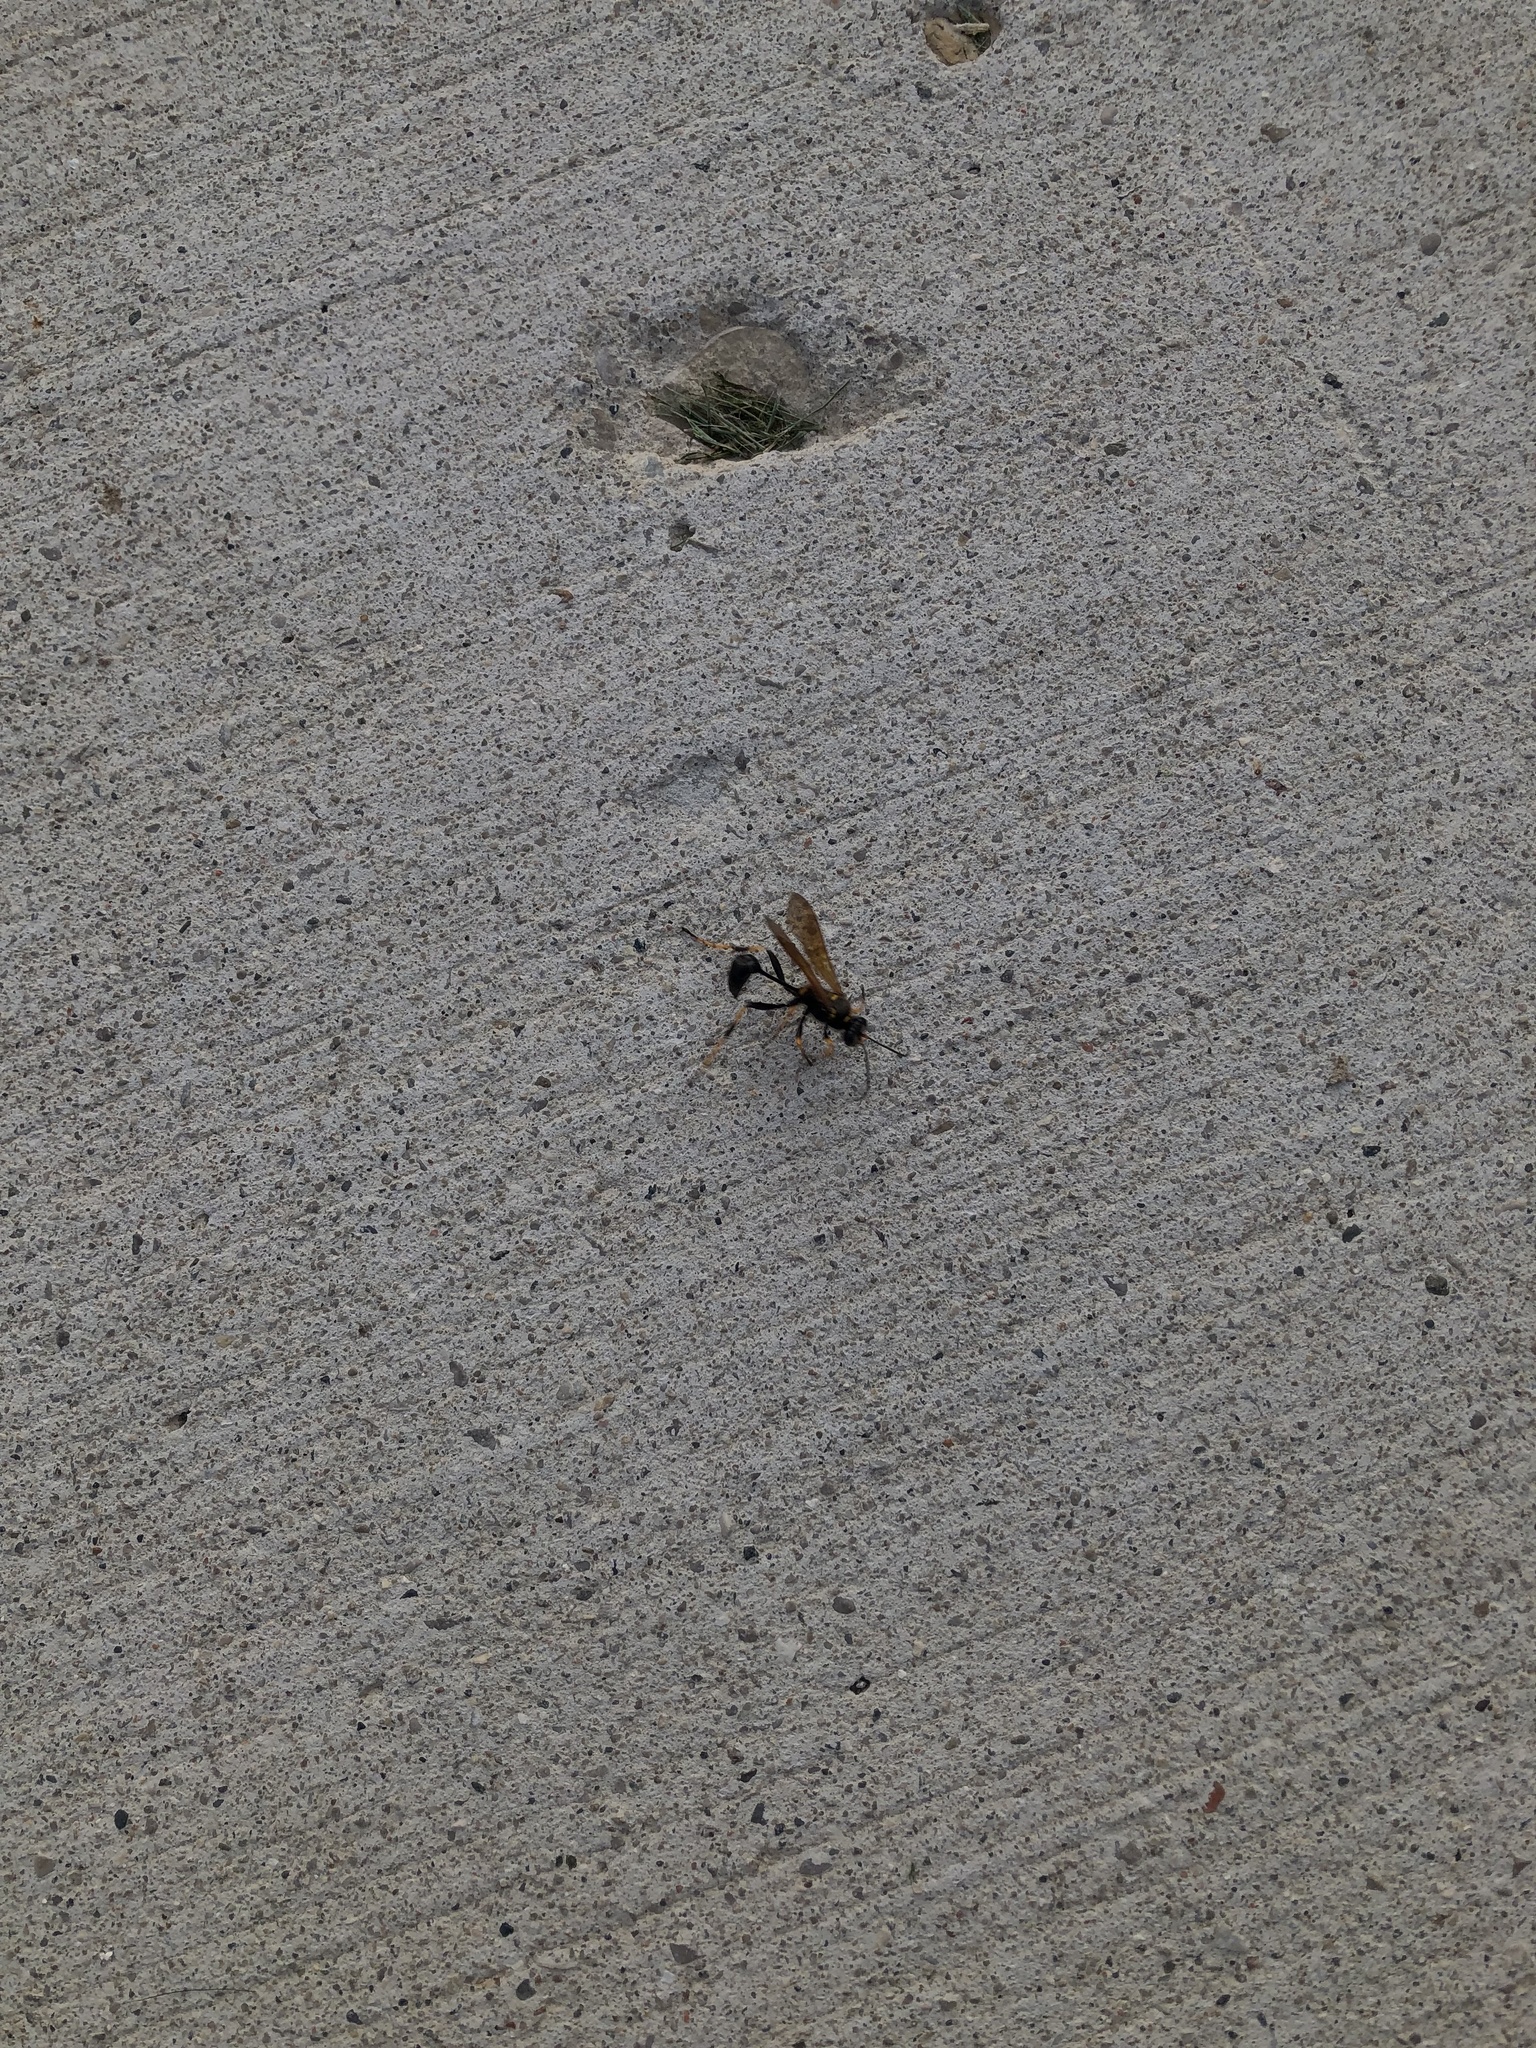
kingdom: Animalia
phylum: Arthropoda
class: Insecta
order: Hymenoptera
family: Sphecidae
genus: Sceliphron
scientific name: Sceliphron caementarium
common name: Mud dauber
